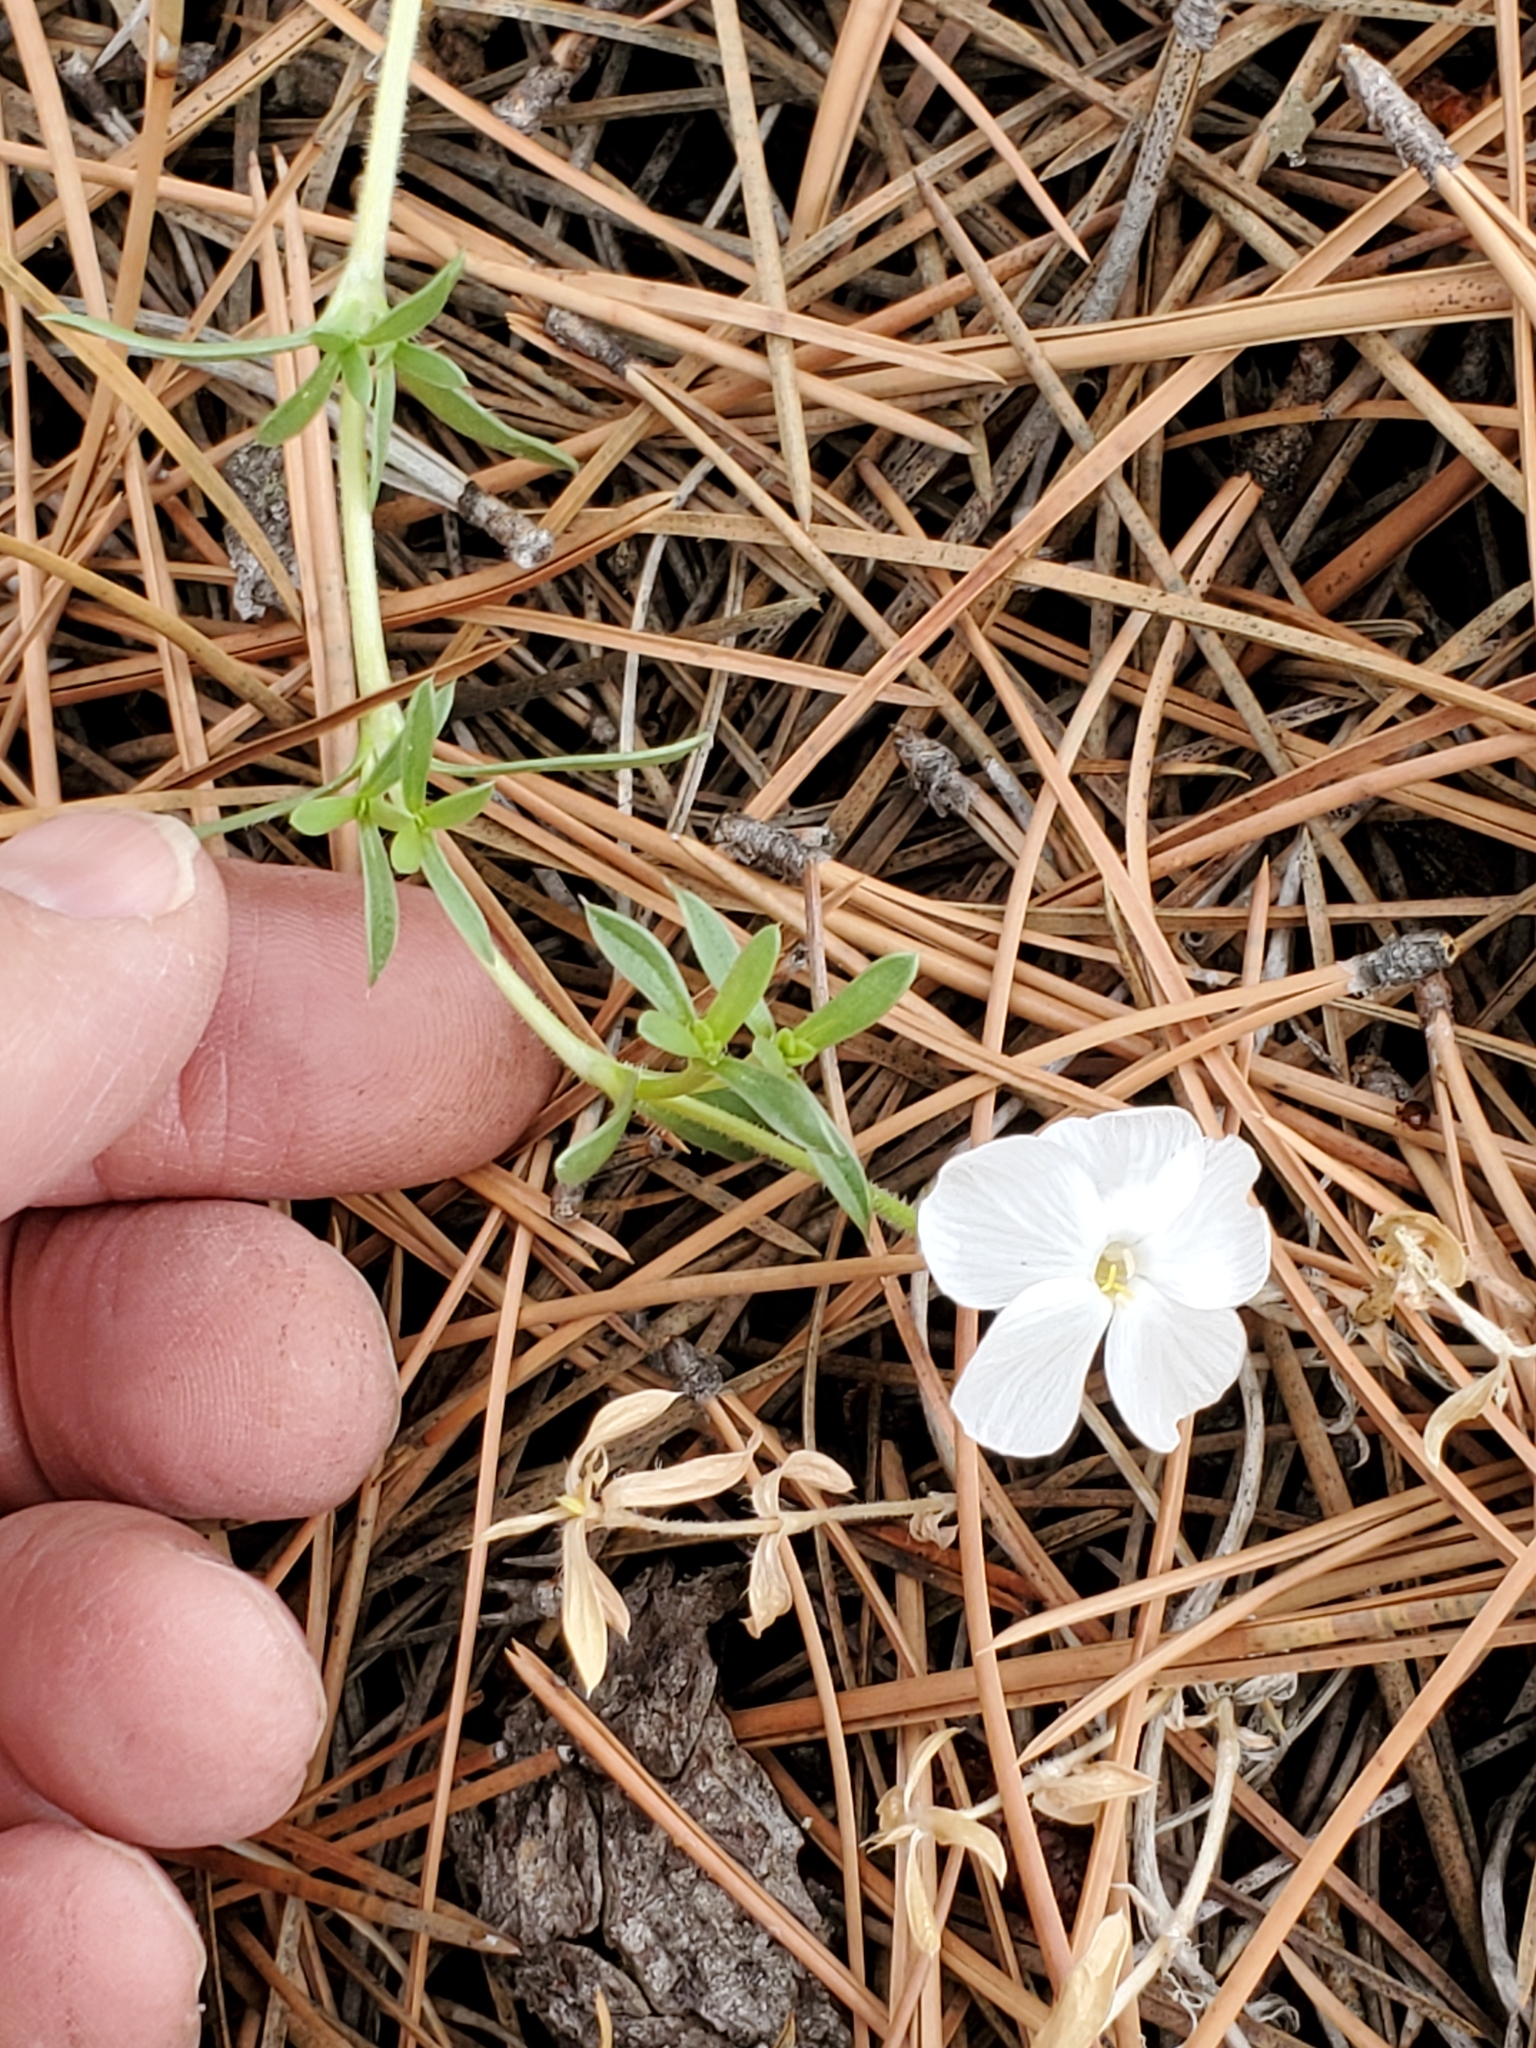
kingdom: Plantae
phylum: Tracheophyta
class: Magnoliopsida
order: Ericales
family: Polemoniaceae
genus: Phlox
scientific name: Phlox alyssifolia
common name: Blue phlox
